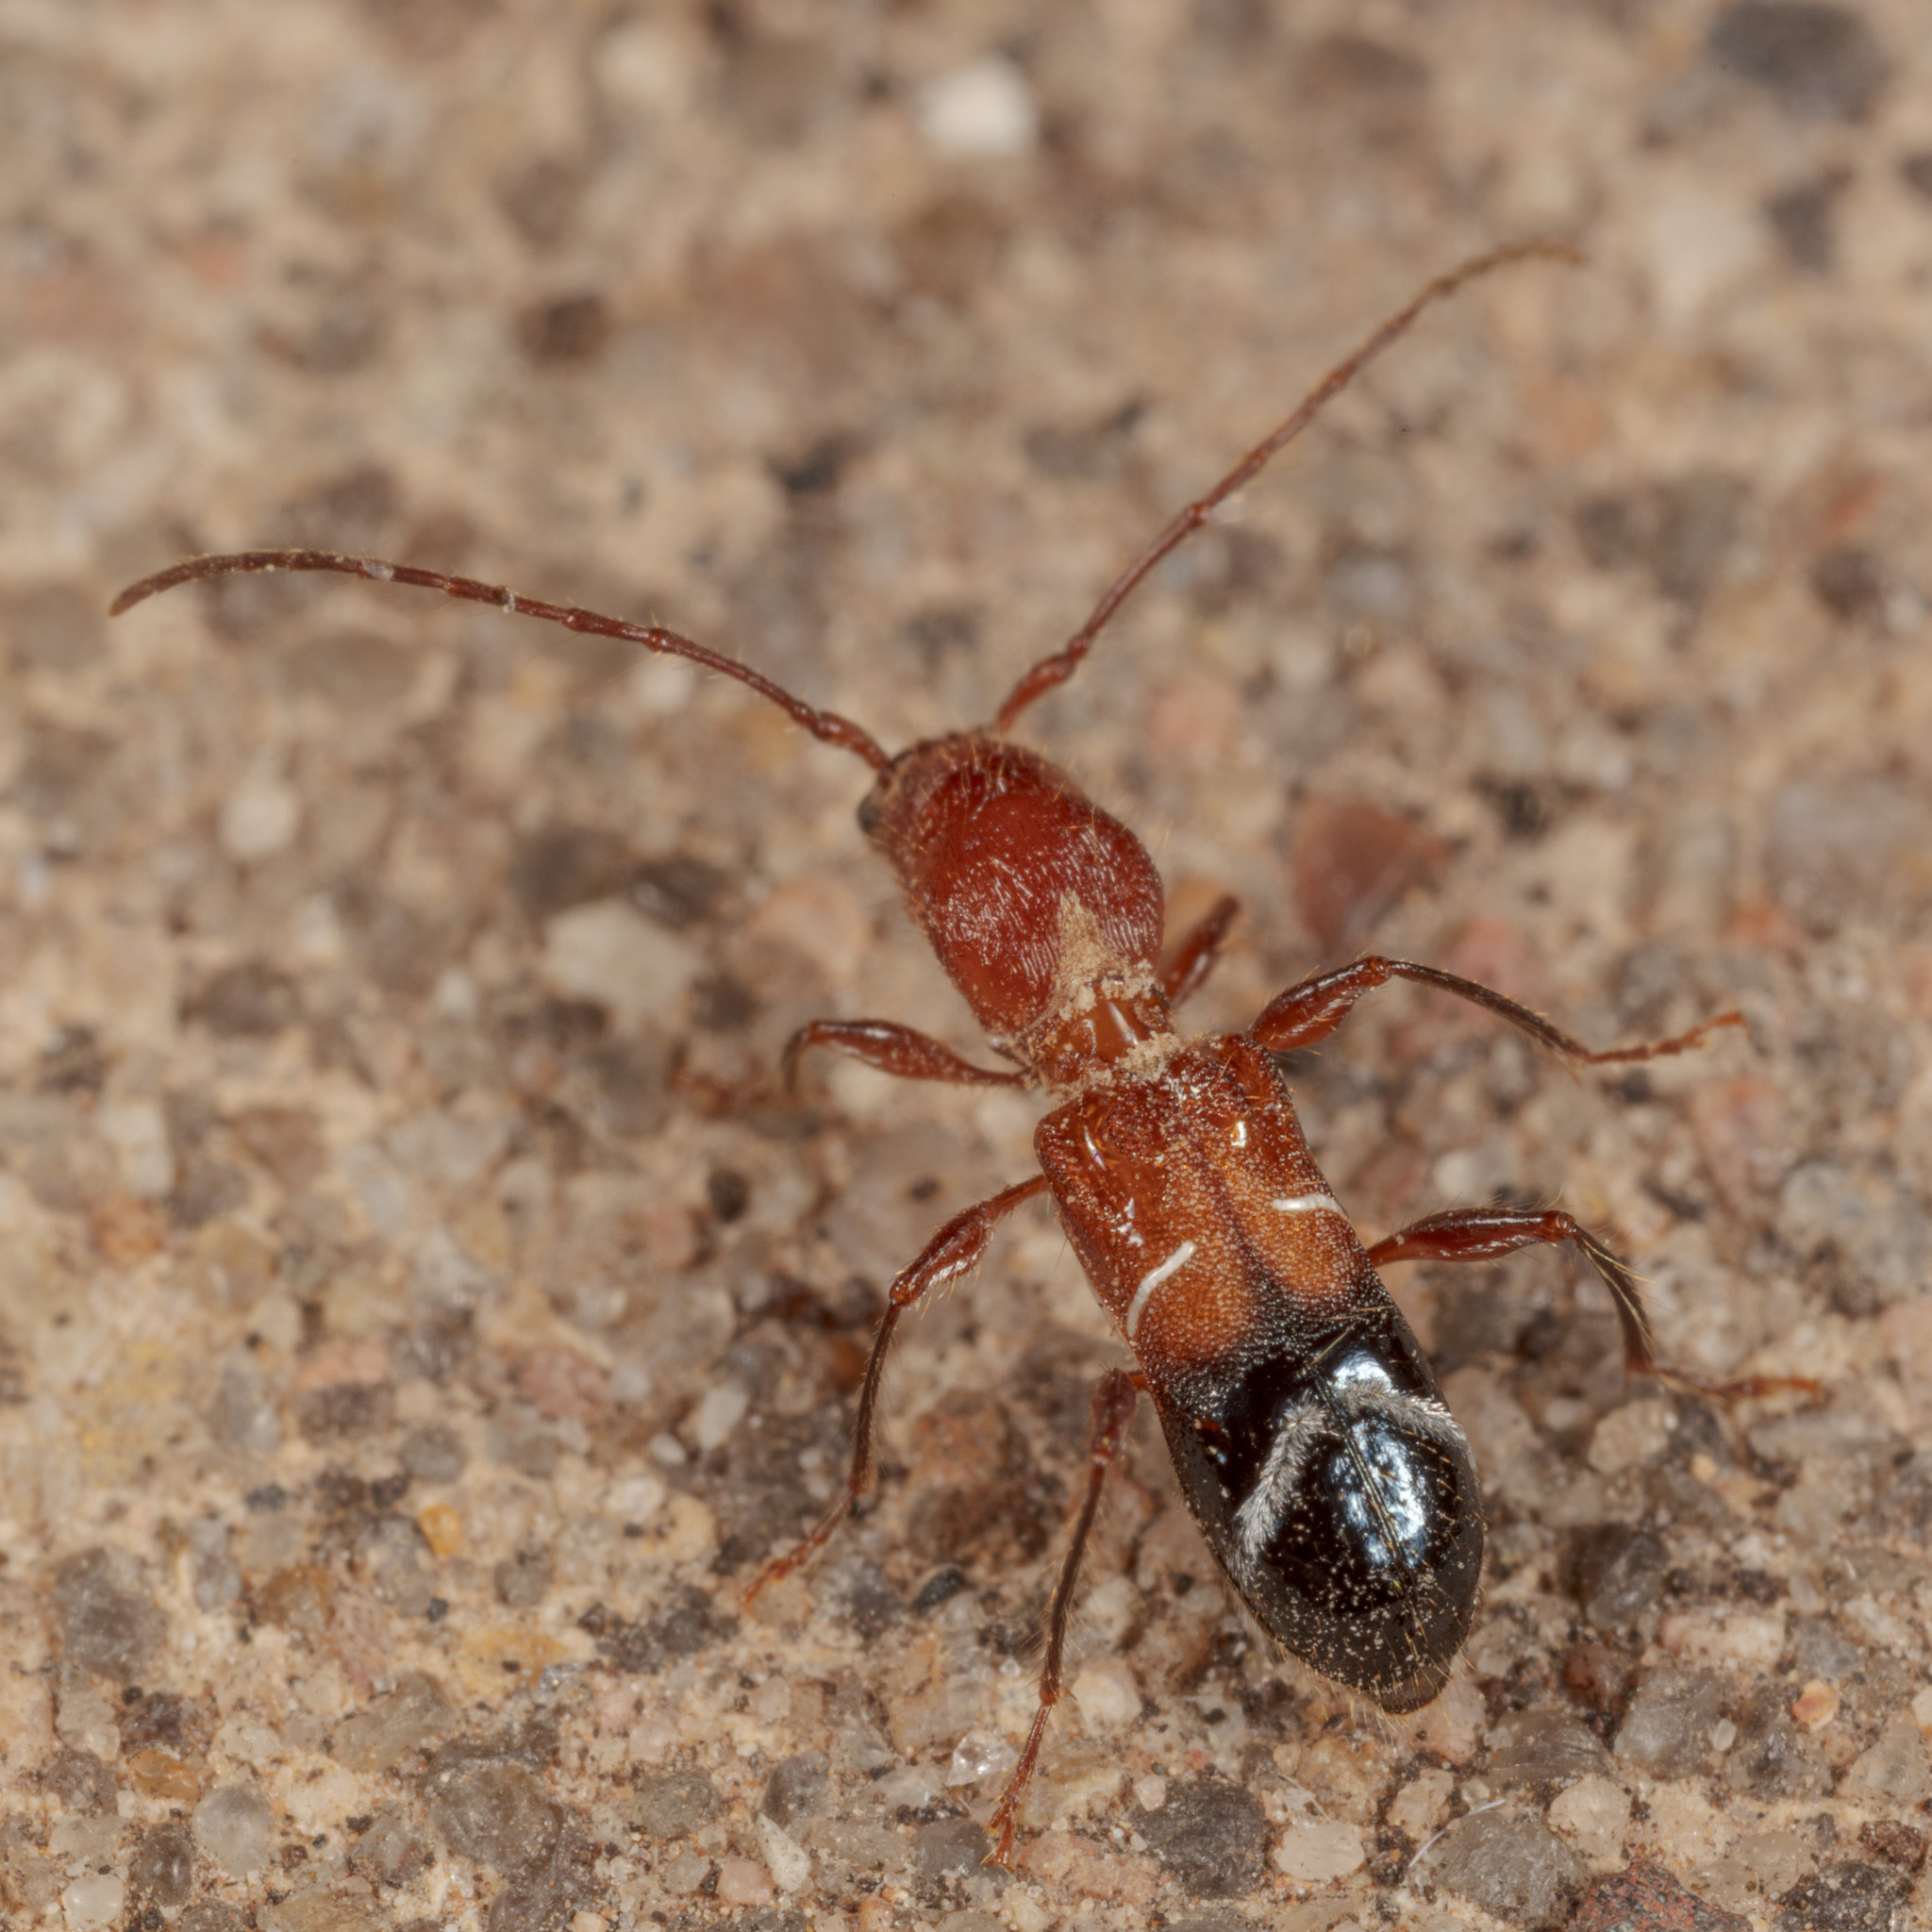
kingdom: Animalia
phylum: Arthropoda
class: Insecta
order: Coleoptera
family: Cerambycidae
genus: Euderces
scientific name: Euderces pini
